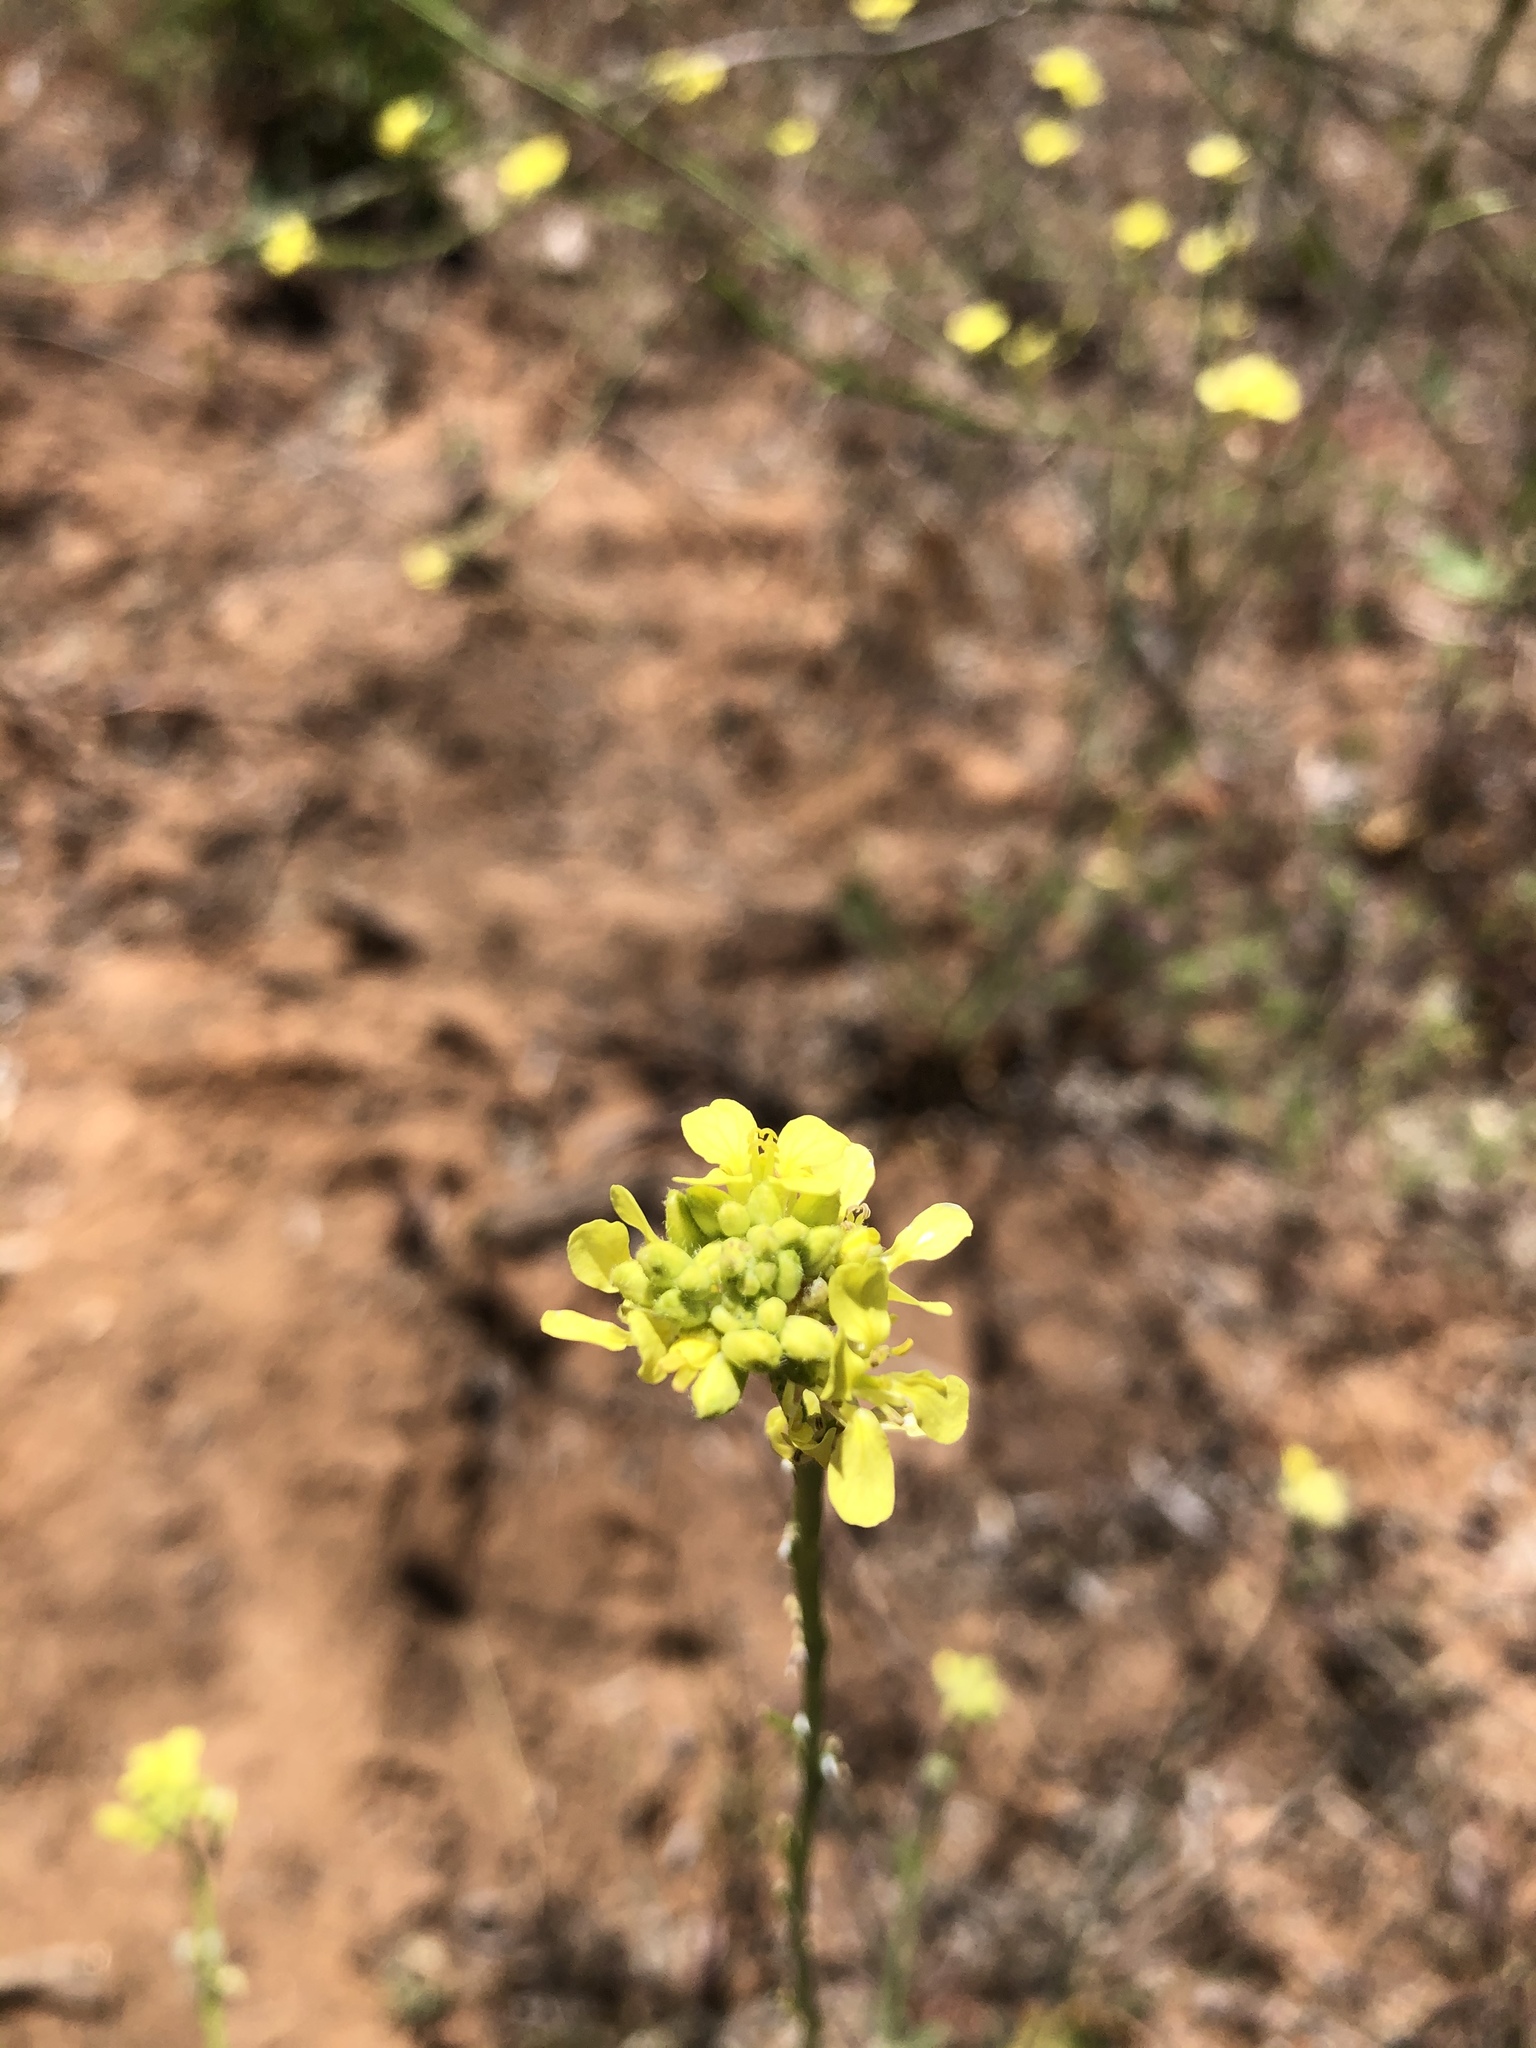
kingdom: Plantae
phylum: Tracheophyta
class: Magnoliopsida
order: Brassicales
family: Brassicaceae
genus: Hirschfeldia
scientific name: Hirschfeldia incana
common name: Hoary mustard
